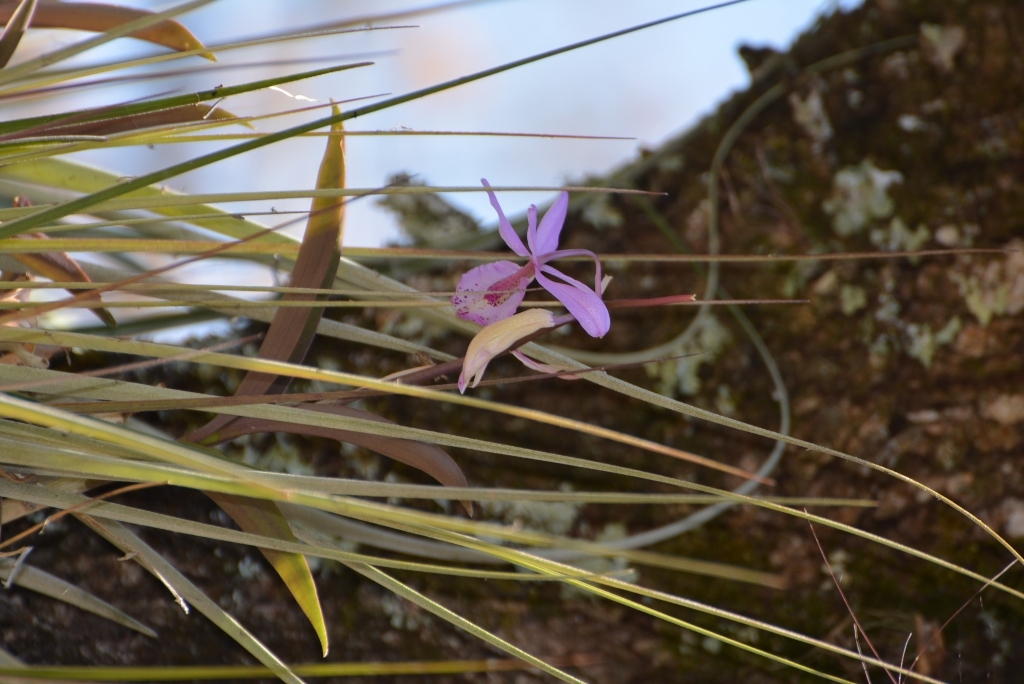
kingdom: Plantae
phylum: Tracheophyta
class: Liliopsida
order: Asparagales
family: Orchidaceae
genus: Barkeria
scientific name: Barkeria spectabilis
